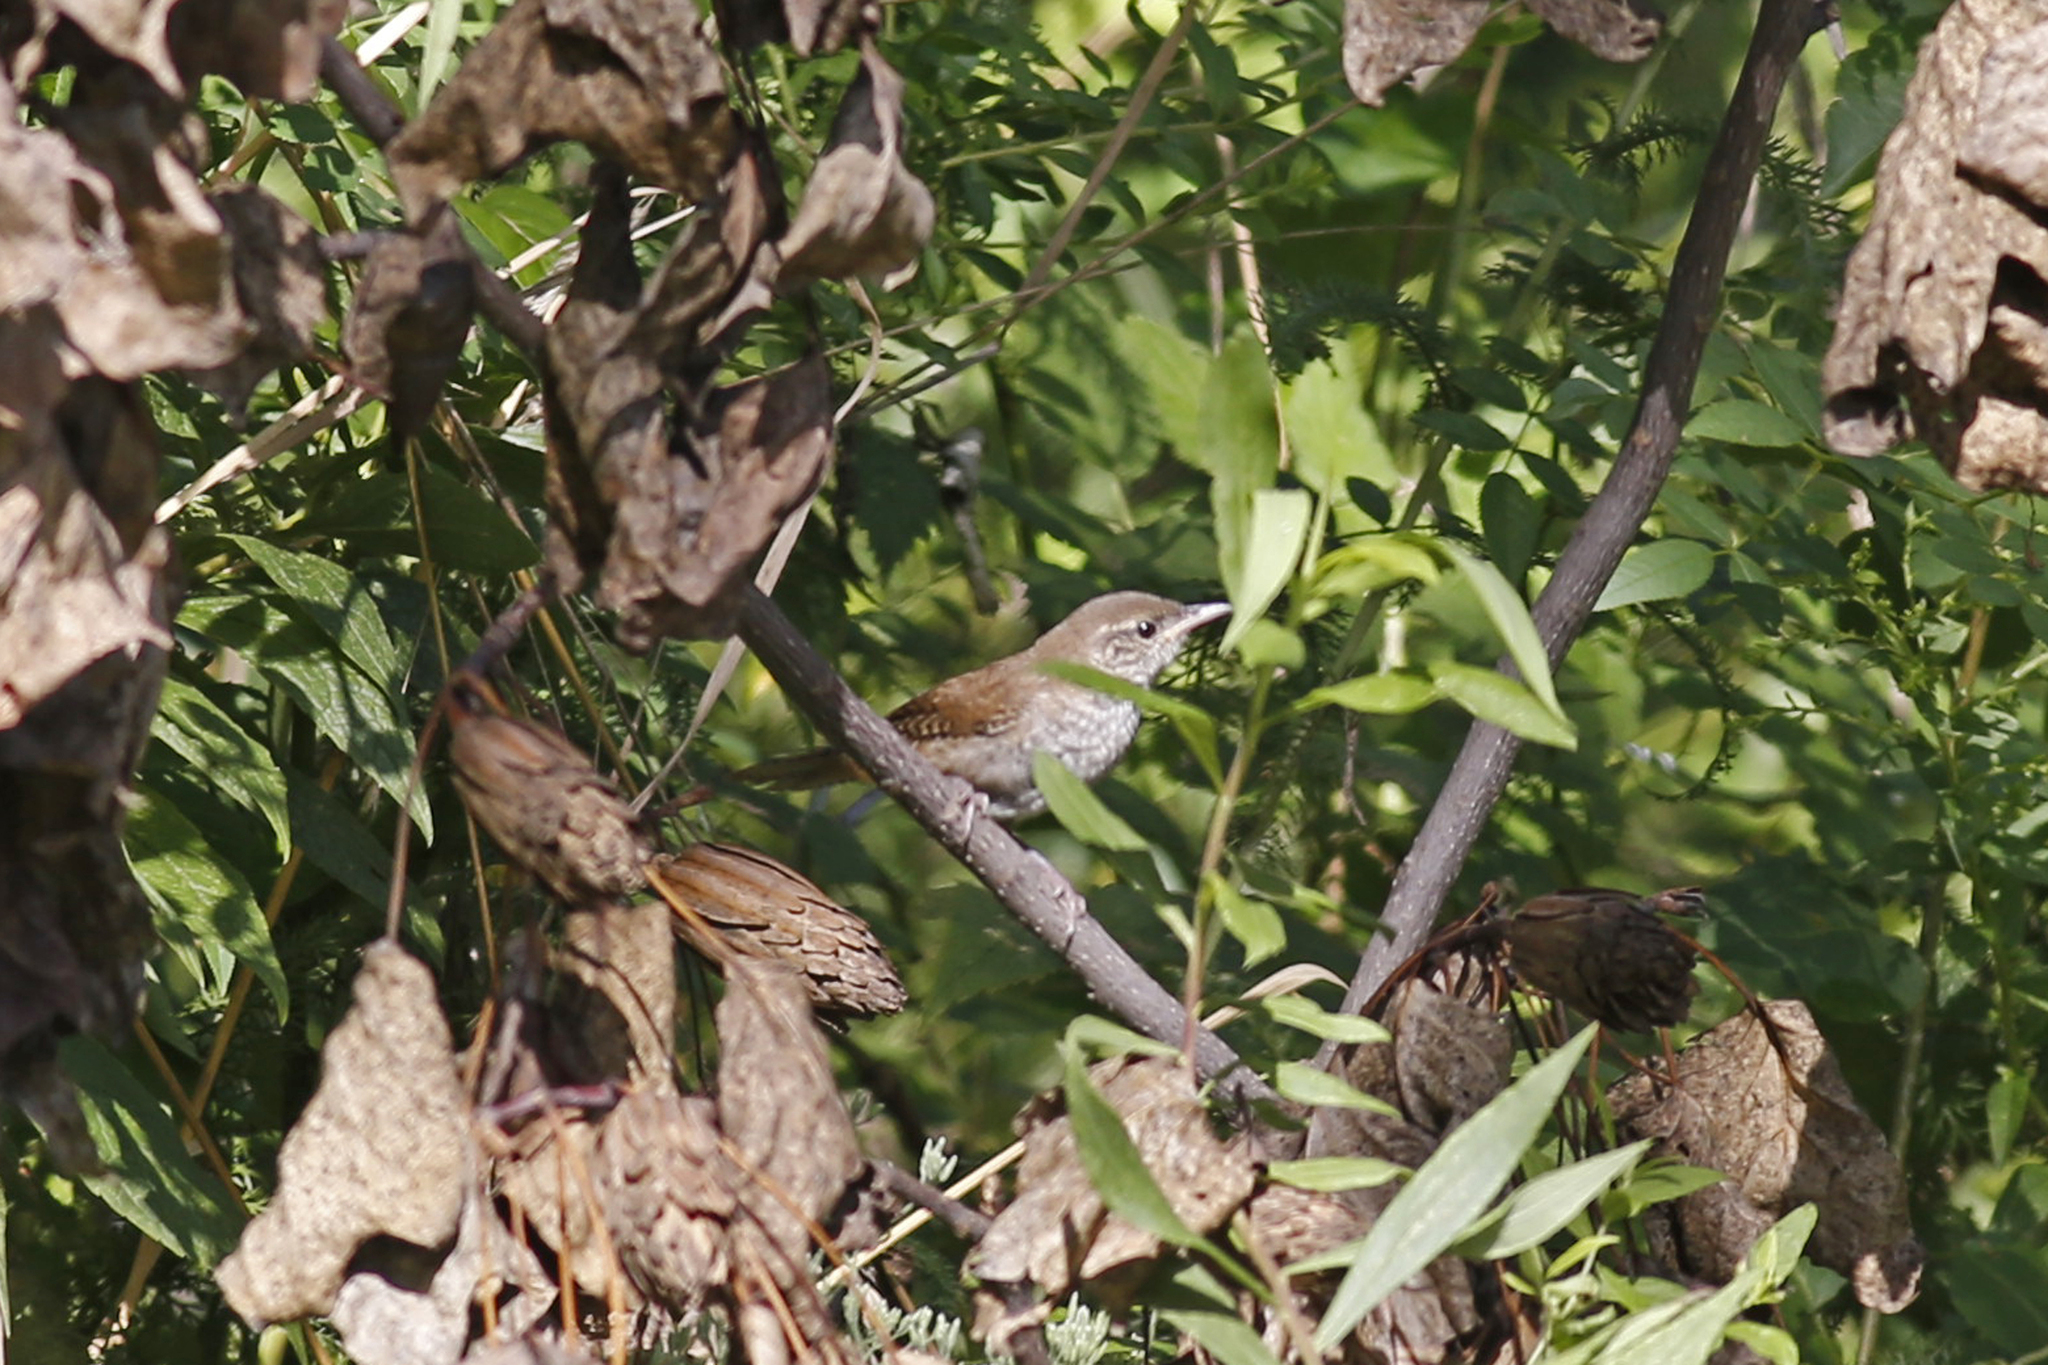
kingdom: Animalia
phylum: Chordata
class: Aves
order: Passeriformes
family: Troglodytidae
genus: Troglodytes
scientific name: Troglodytes aedon
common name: House wren
